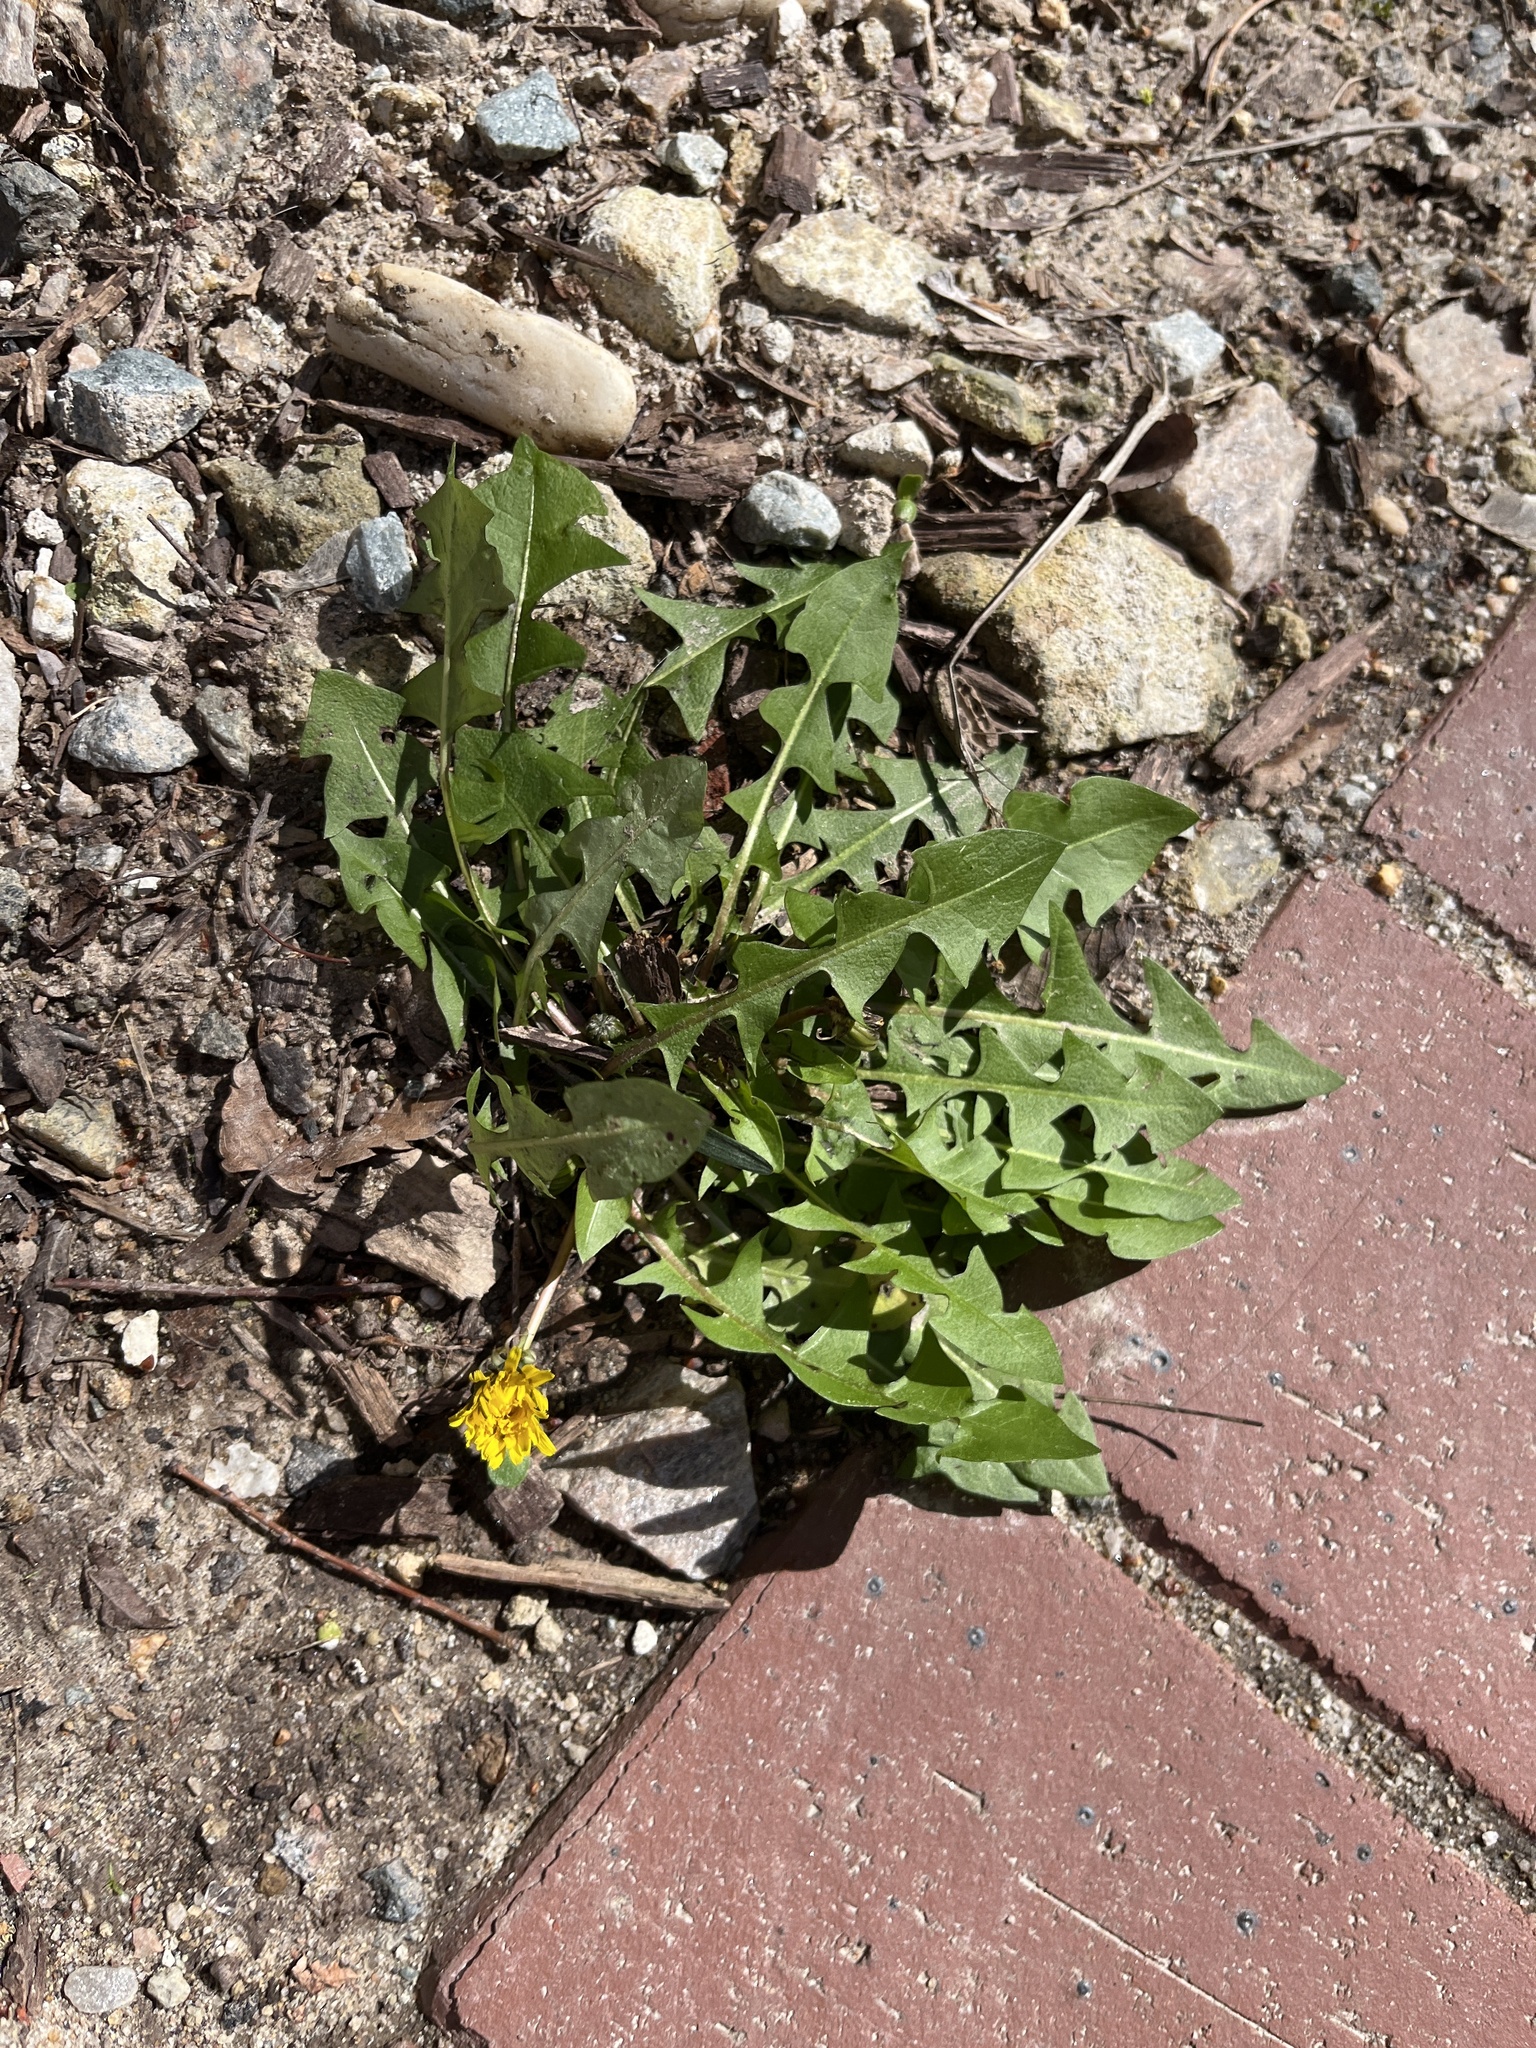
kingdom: Plantae
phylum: Tracheophyta
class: Magnoliopsida
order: Asterales
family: Asteraceae
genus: Taraxacum
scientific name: Taraxacum
